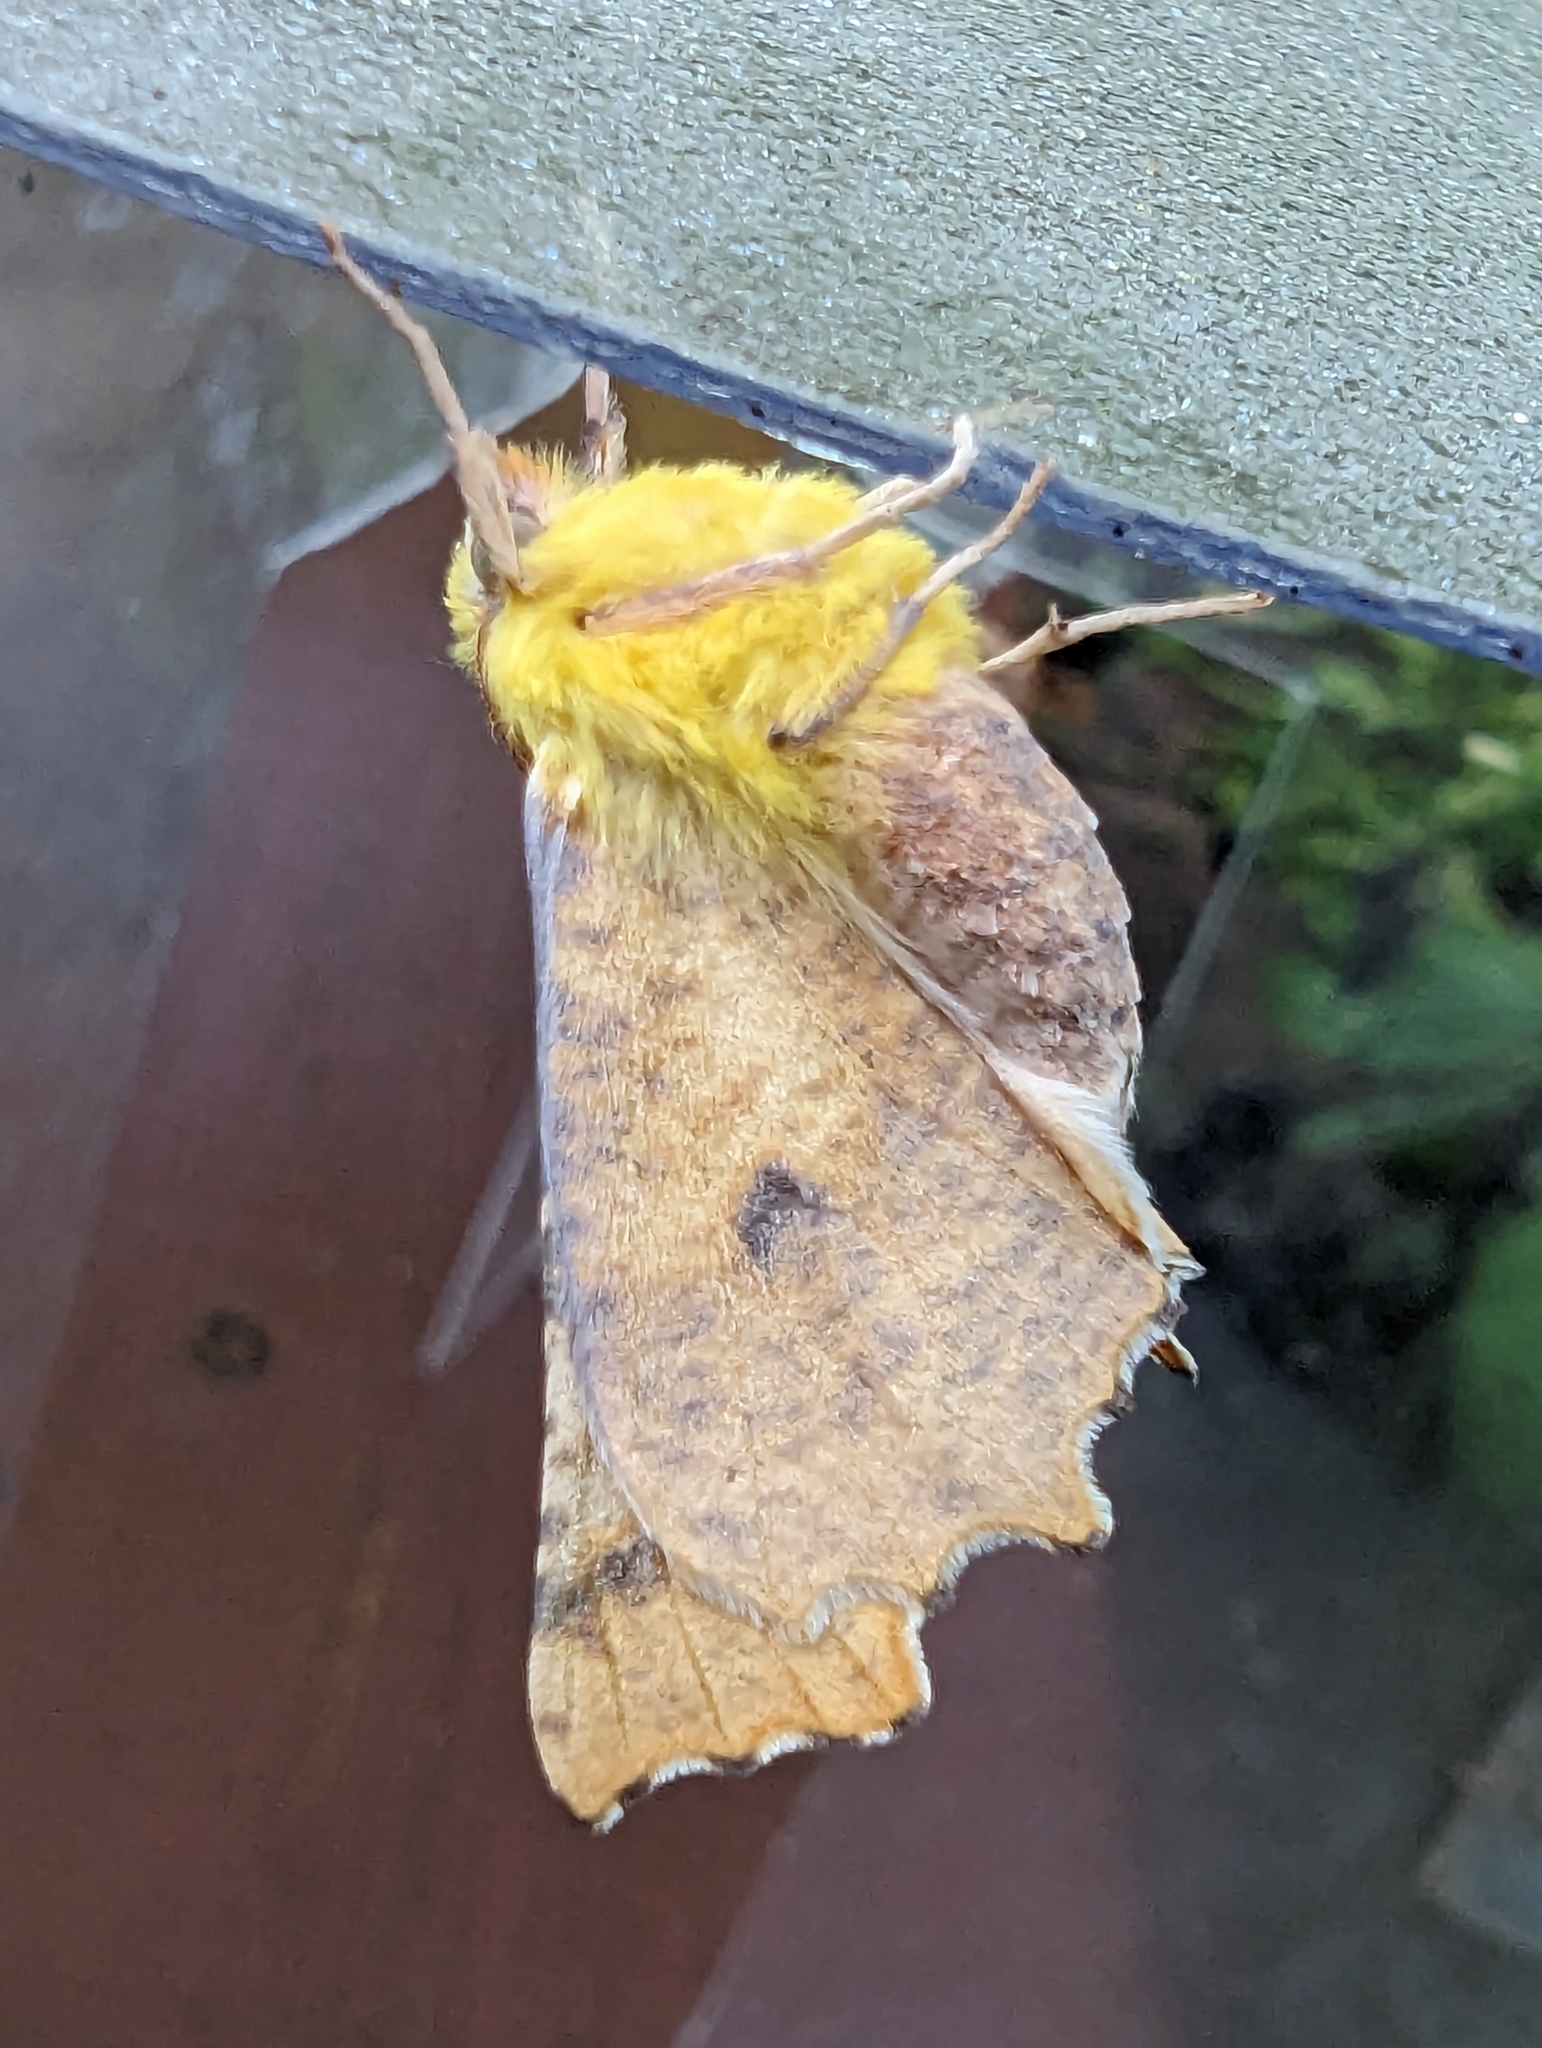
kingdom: Animalia
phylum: Arthropoda
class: Insecta
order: Lepidoptera
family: Geometridae
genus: Ennomos
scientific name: Ennomos alniaria
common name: Canary-shouldered thorn
